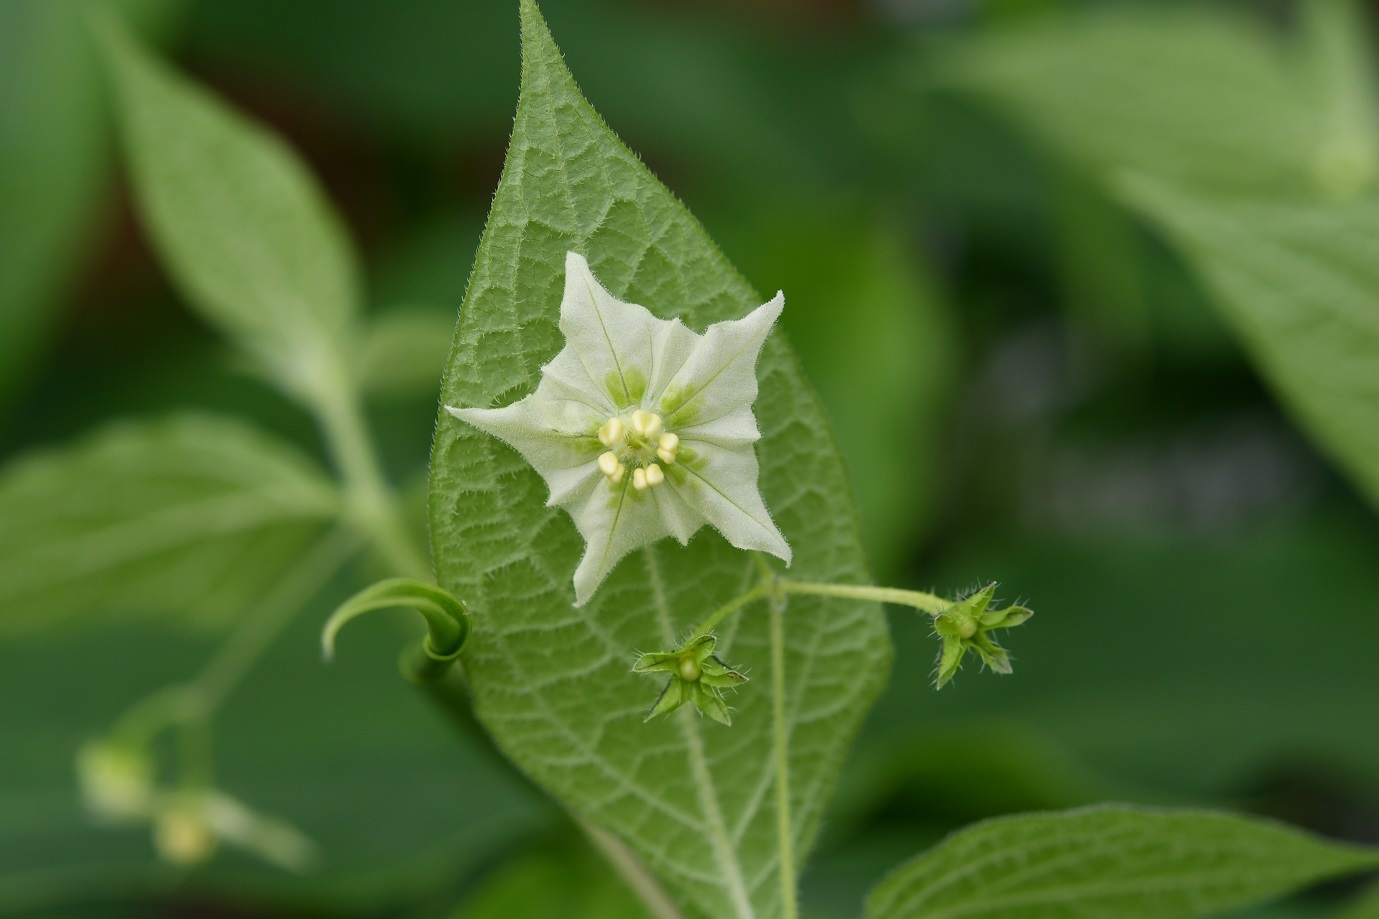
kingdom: Plantae
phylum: Tracheophyta
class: Magnoliopsida
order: Solanales
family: Solanaceae
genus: Jaltomata
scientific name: Jaltomata procumbens
